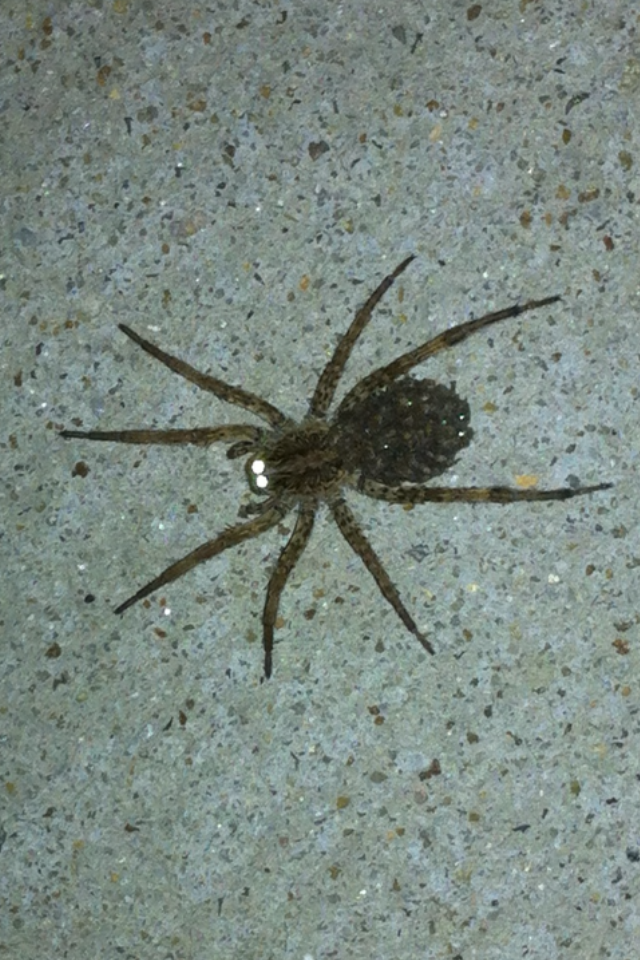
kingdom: Animalia
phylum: Arthropoda
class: Arachnida
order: Araneae
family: Lycosidae
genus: Hogna
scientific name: Hogna antelucana
